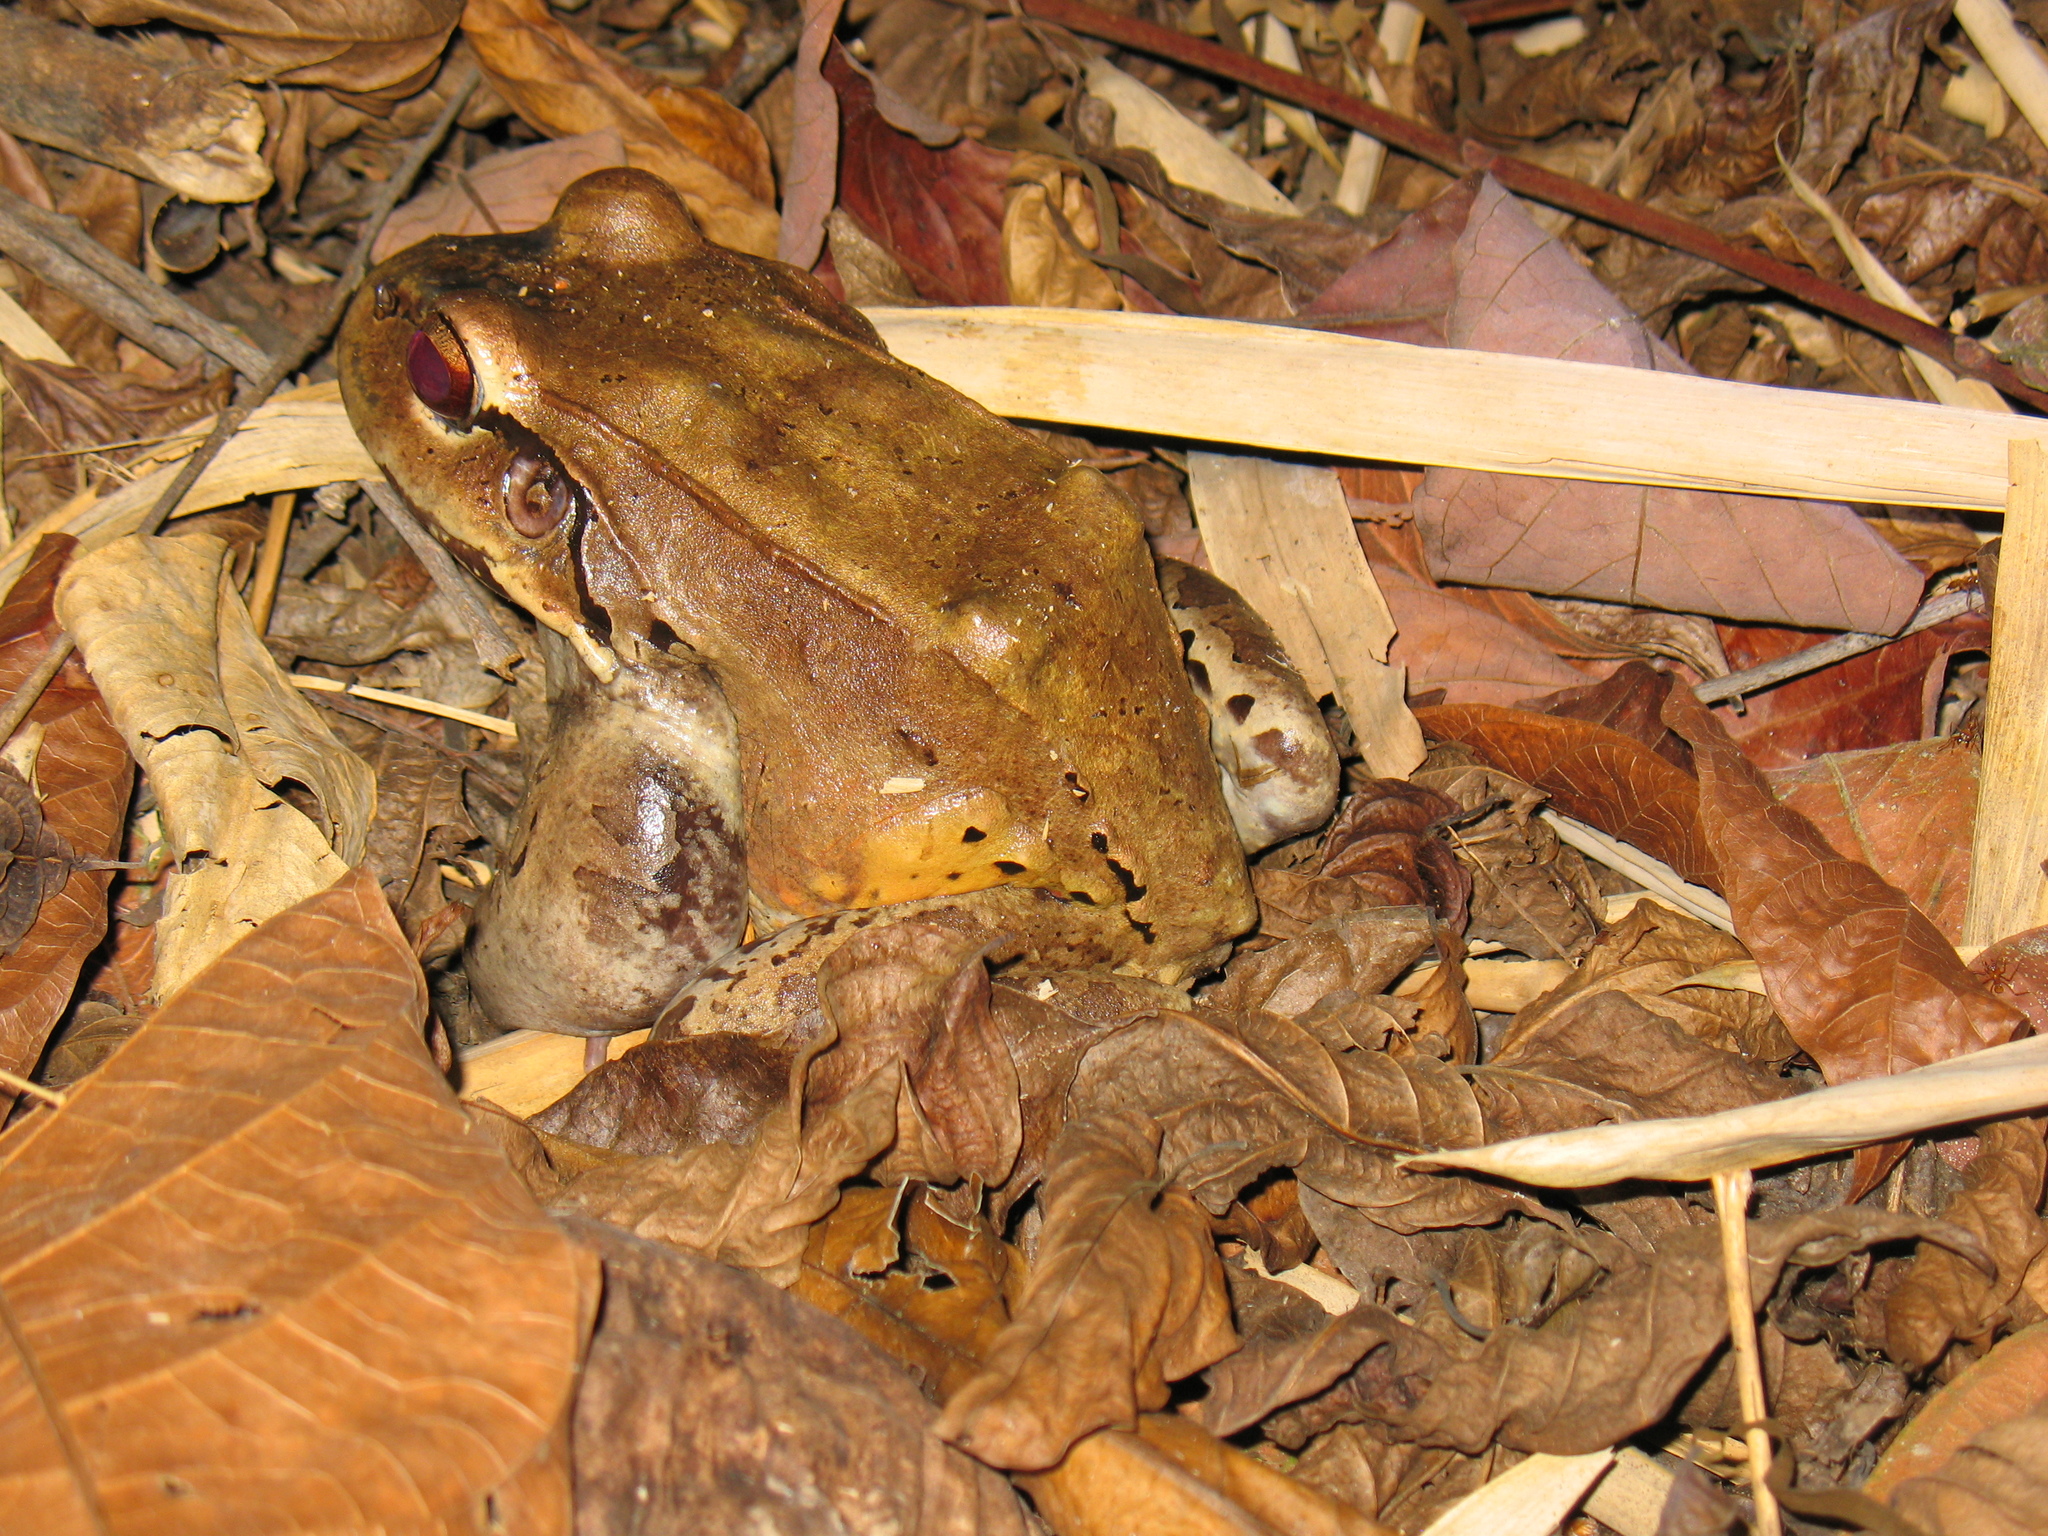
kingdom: Animalia
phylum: Chordata
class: Amphibia
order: Anura
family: Leptodactylidae
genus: Leptodactylus
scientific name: Leptodactylus savagei
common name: Savage's thin-toed frog
